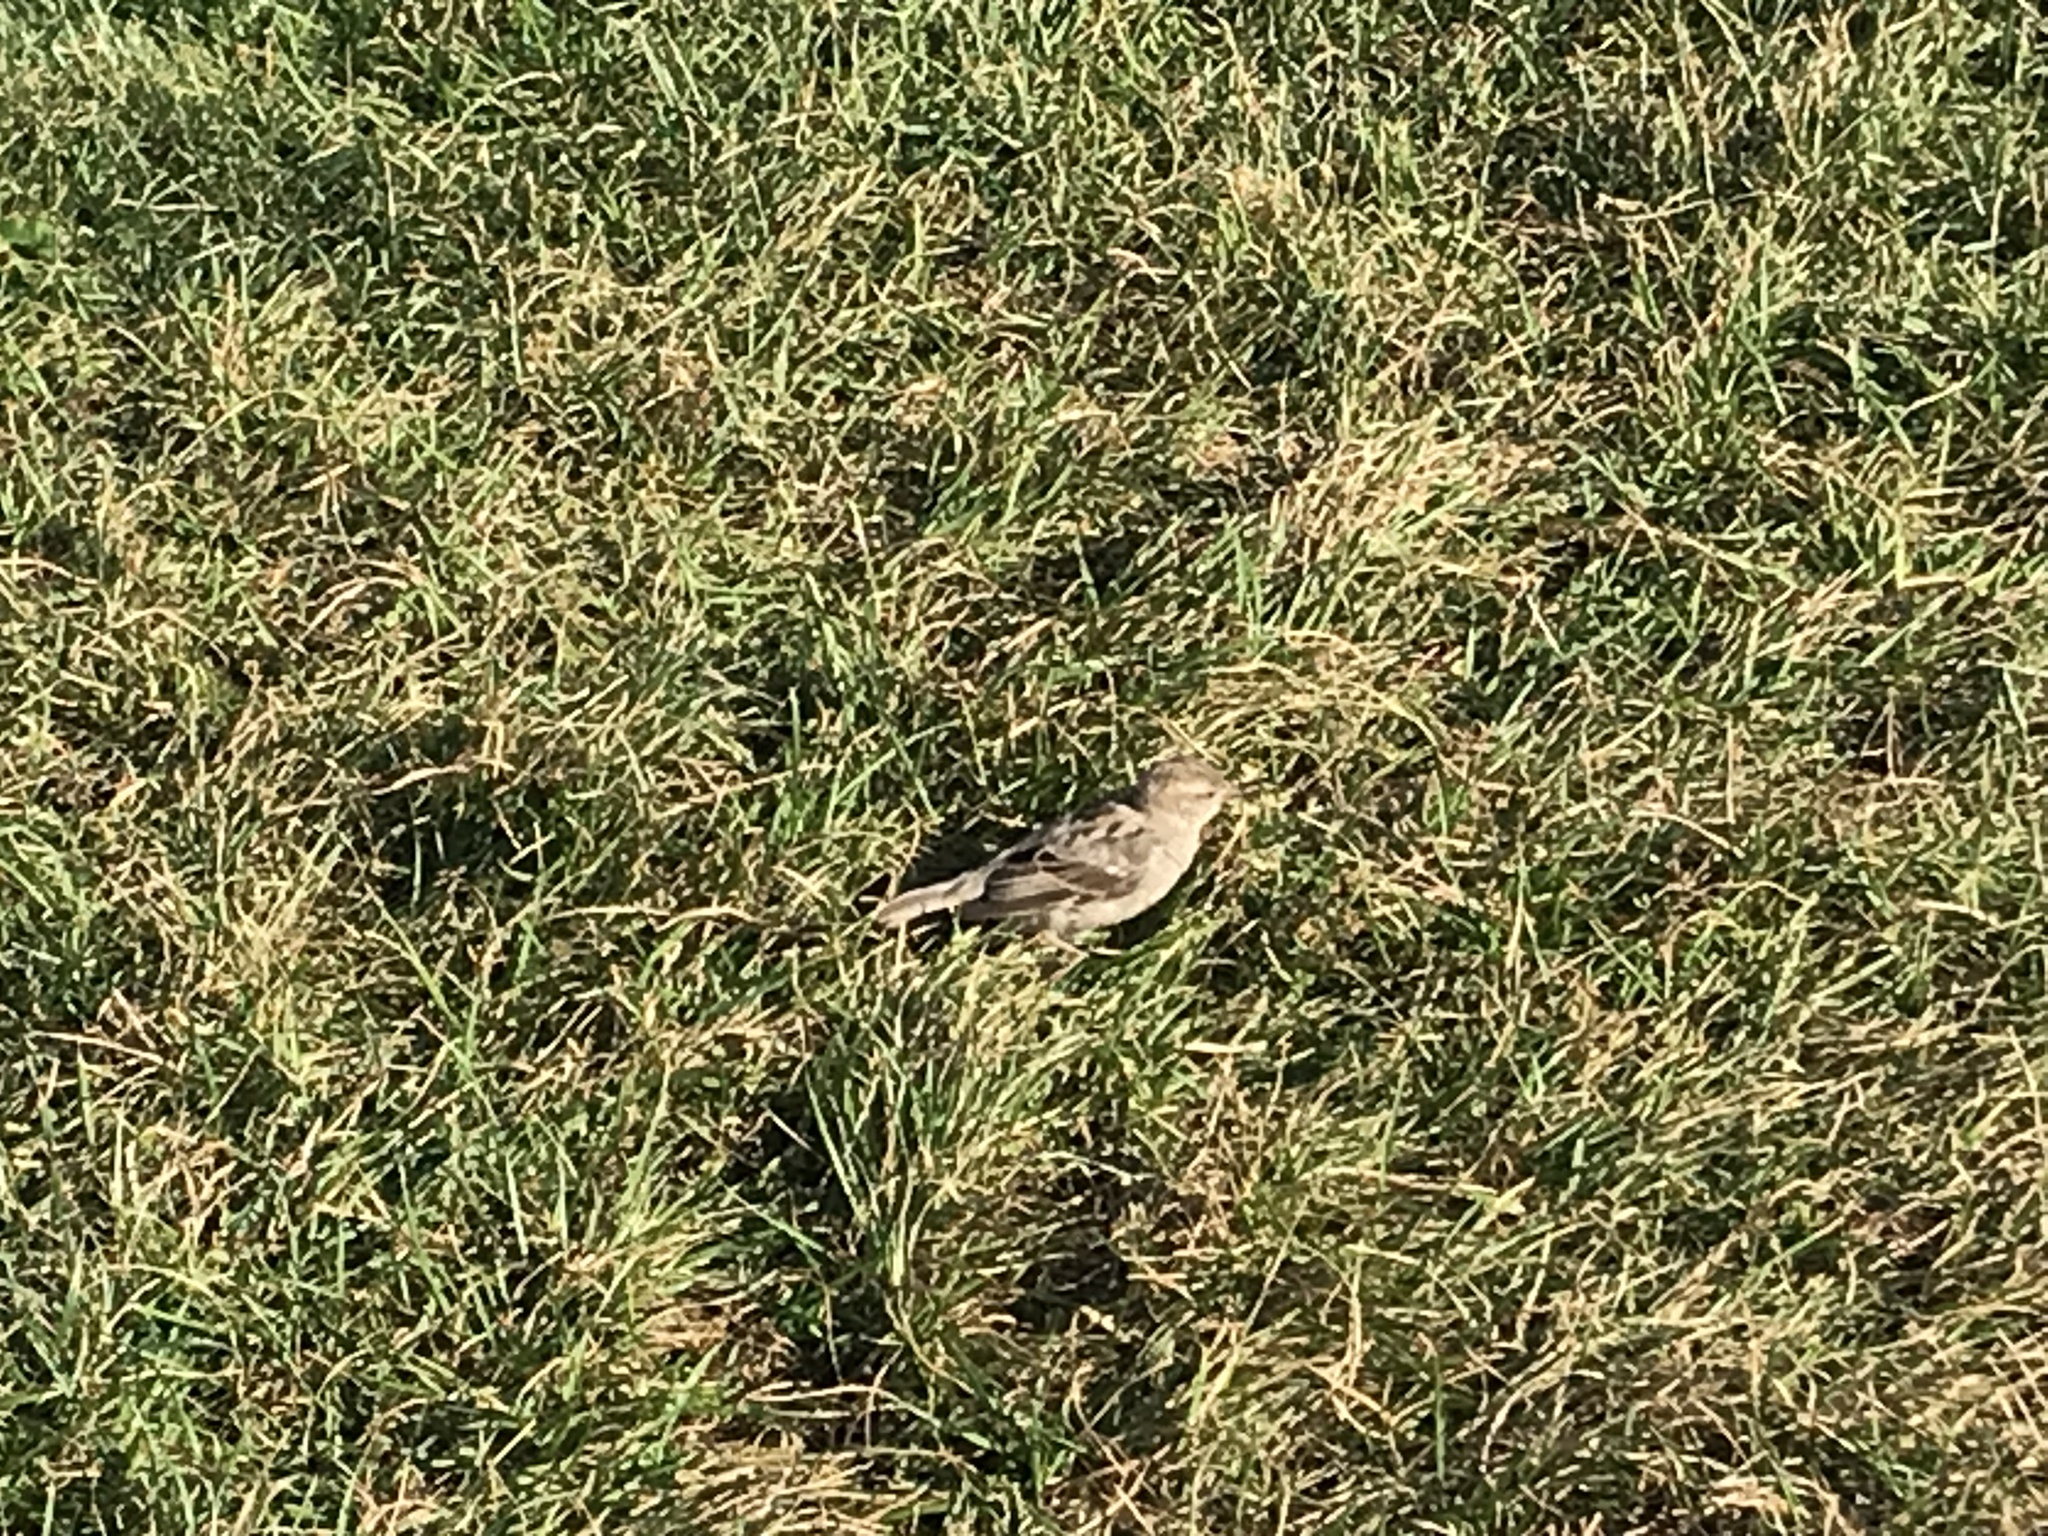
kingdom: Animalia
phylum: Chordata
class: Aves
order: Passeriformes
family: Passeridae
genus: Passer
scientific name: Passer domesticus
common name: House sparrow
